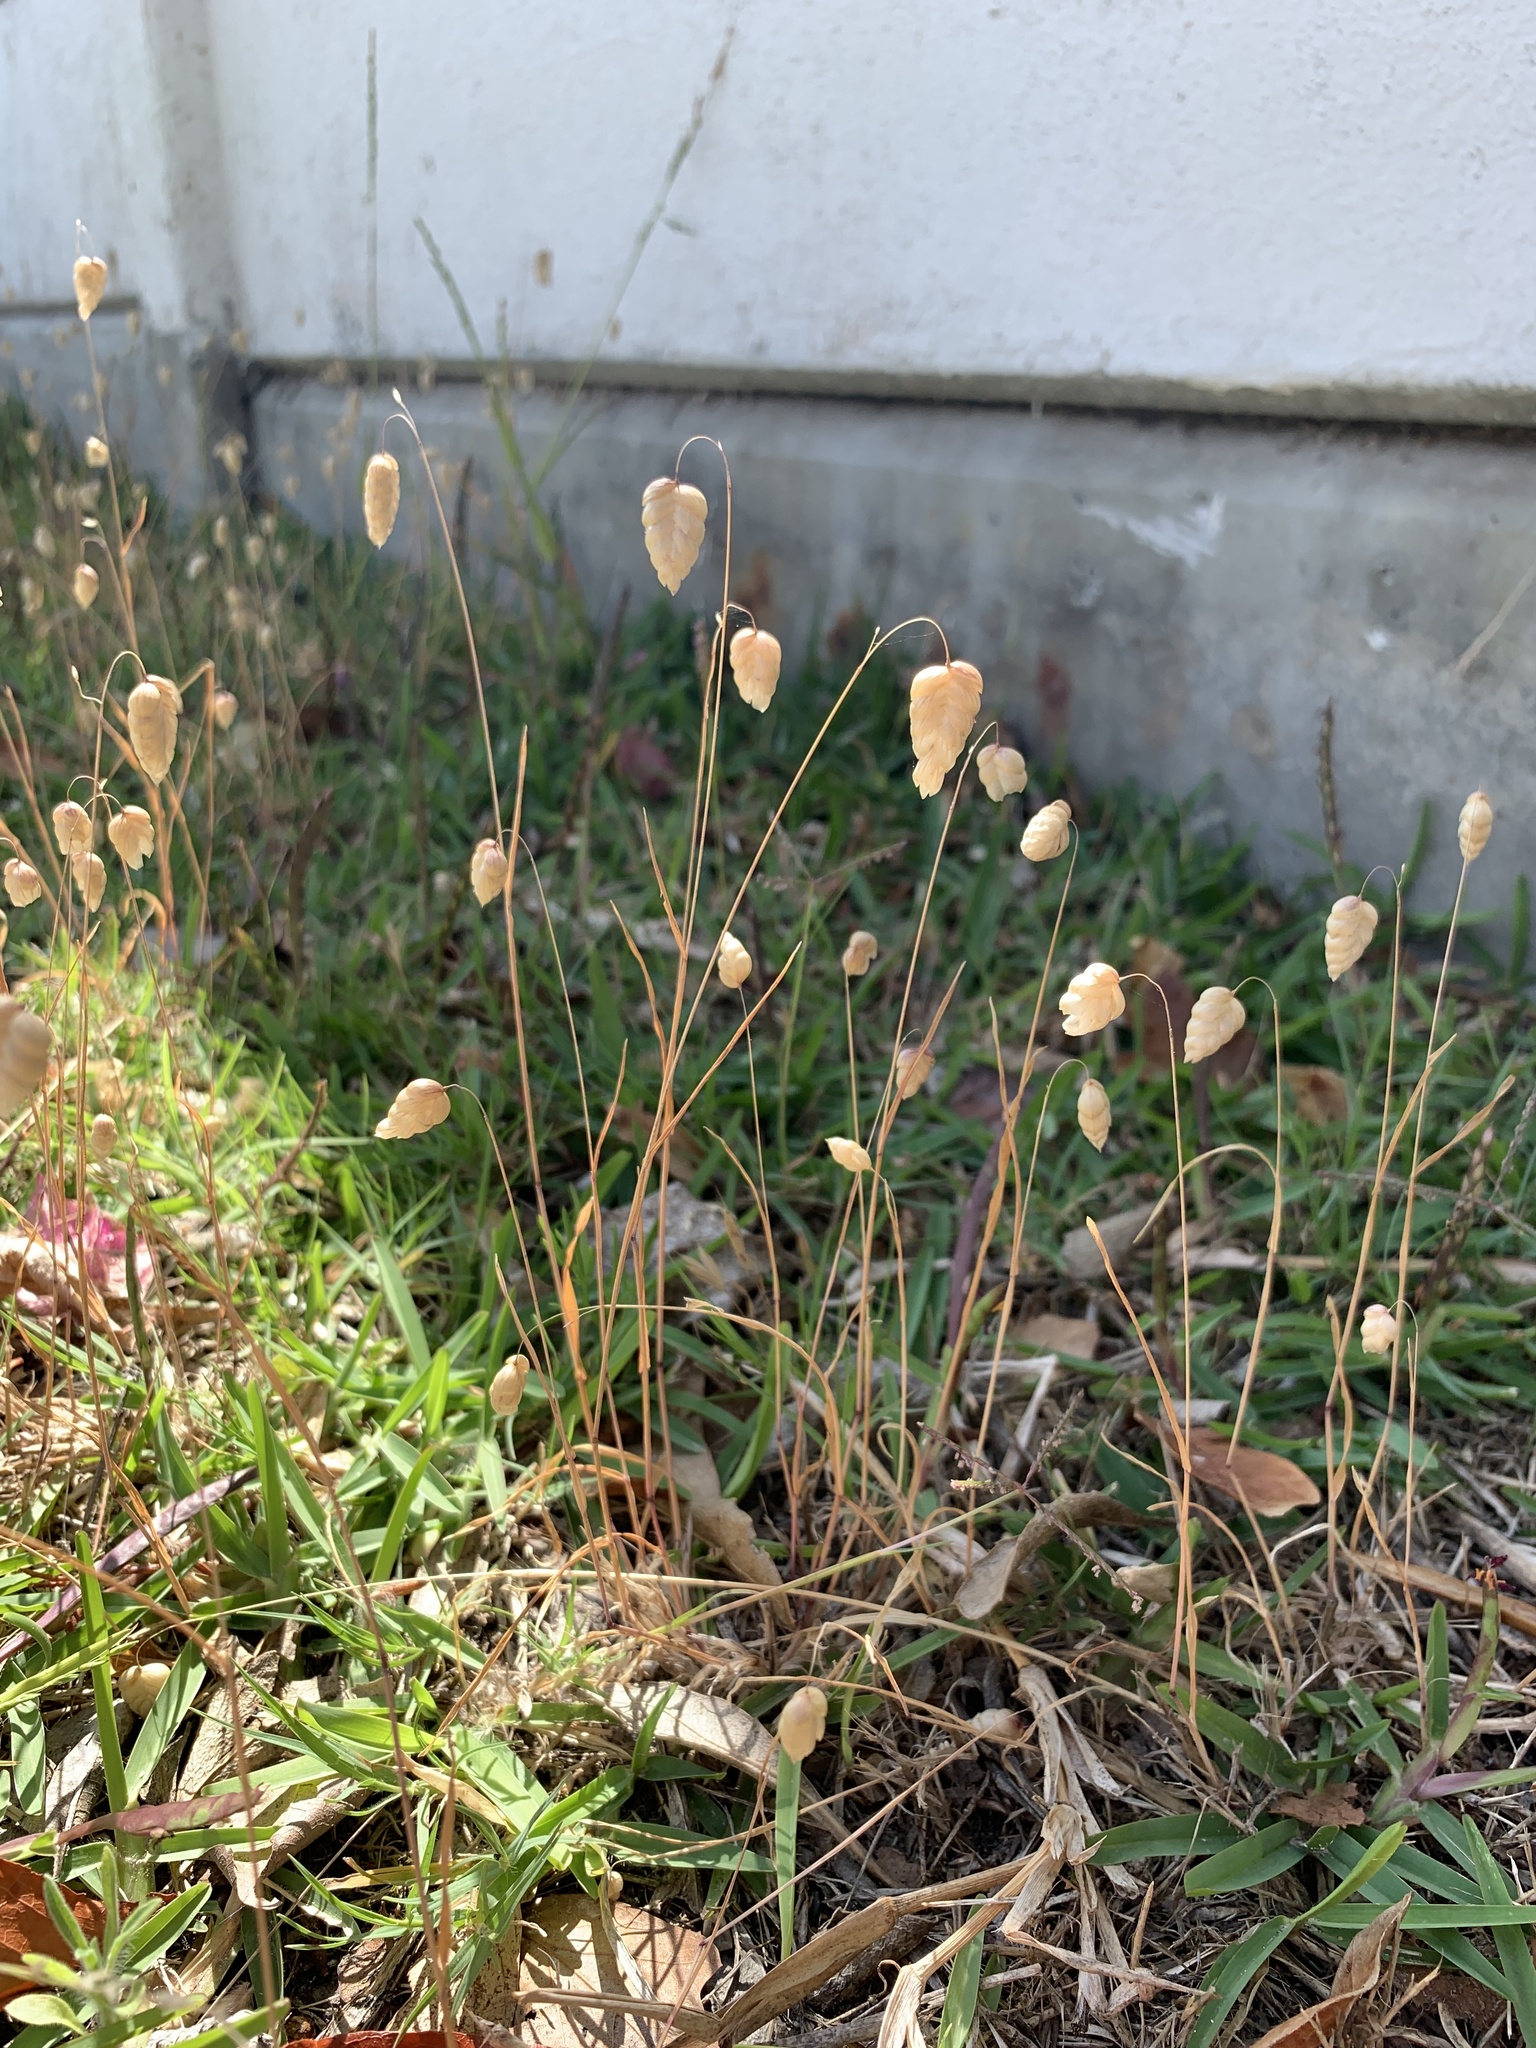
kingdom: Plantae
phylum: Tracheophyta
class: Liliopsida
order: Poales
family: Poaceae
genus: Briza
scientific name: Briza maxima
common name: Big quakinggrass
